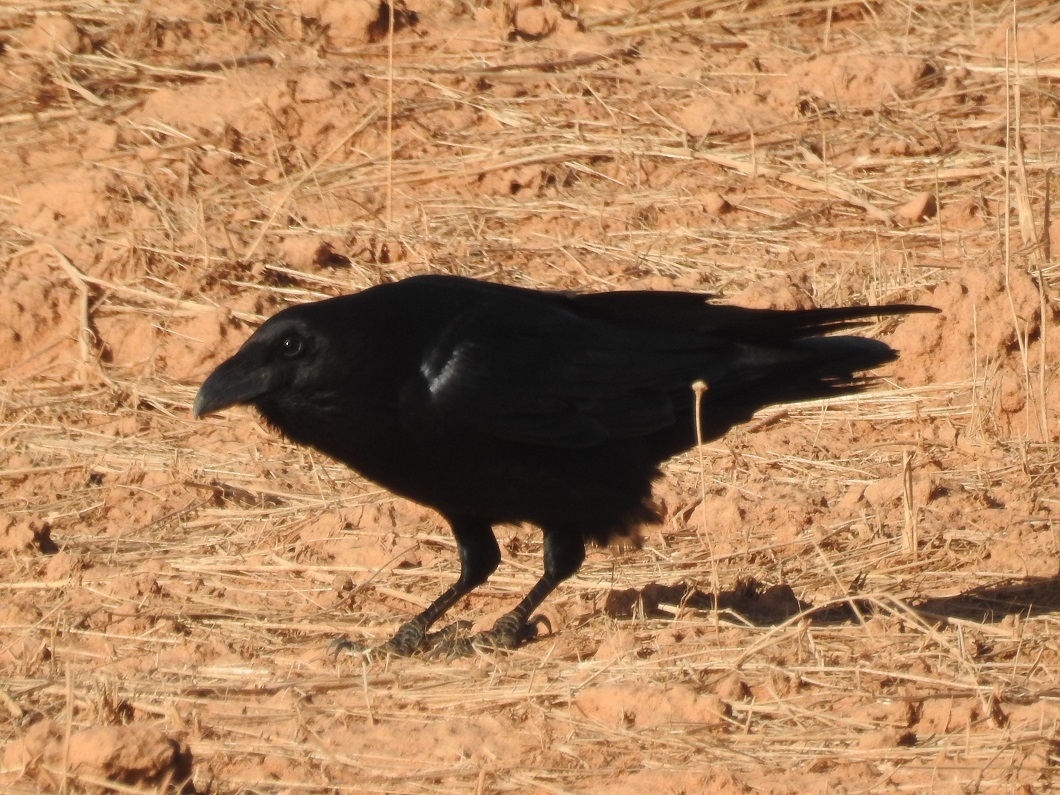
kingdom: Animalia
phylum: Chordata
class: Aves
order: Passeriformes
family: Corvidae
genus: Corvus
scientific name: Corvus corax
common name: Common raven
